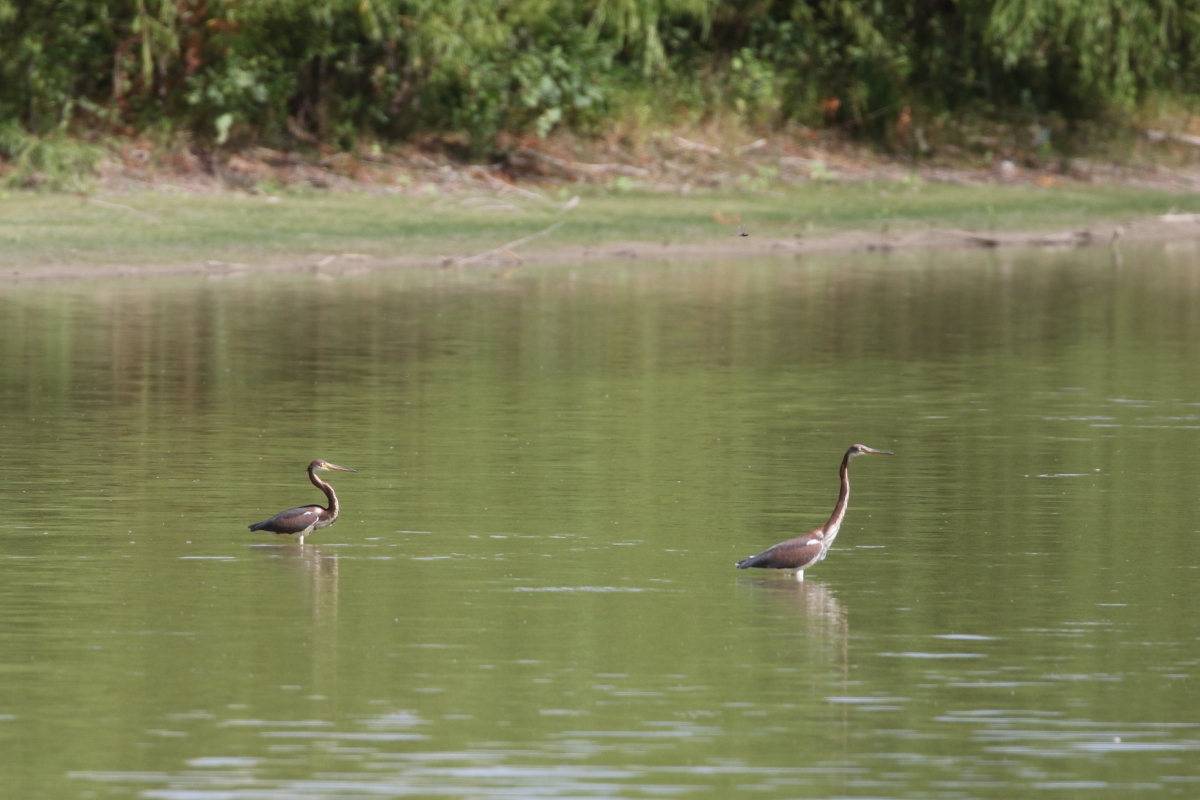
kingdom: Animalia
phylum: Chordata
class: Aves
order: Pelecaniformes
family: Ardeidae
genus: Egretta
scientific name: Egretta tricolor
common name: Tricolored heron
